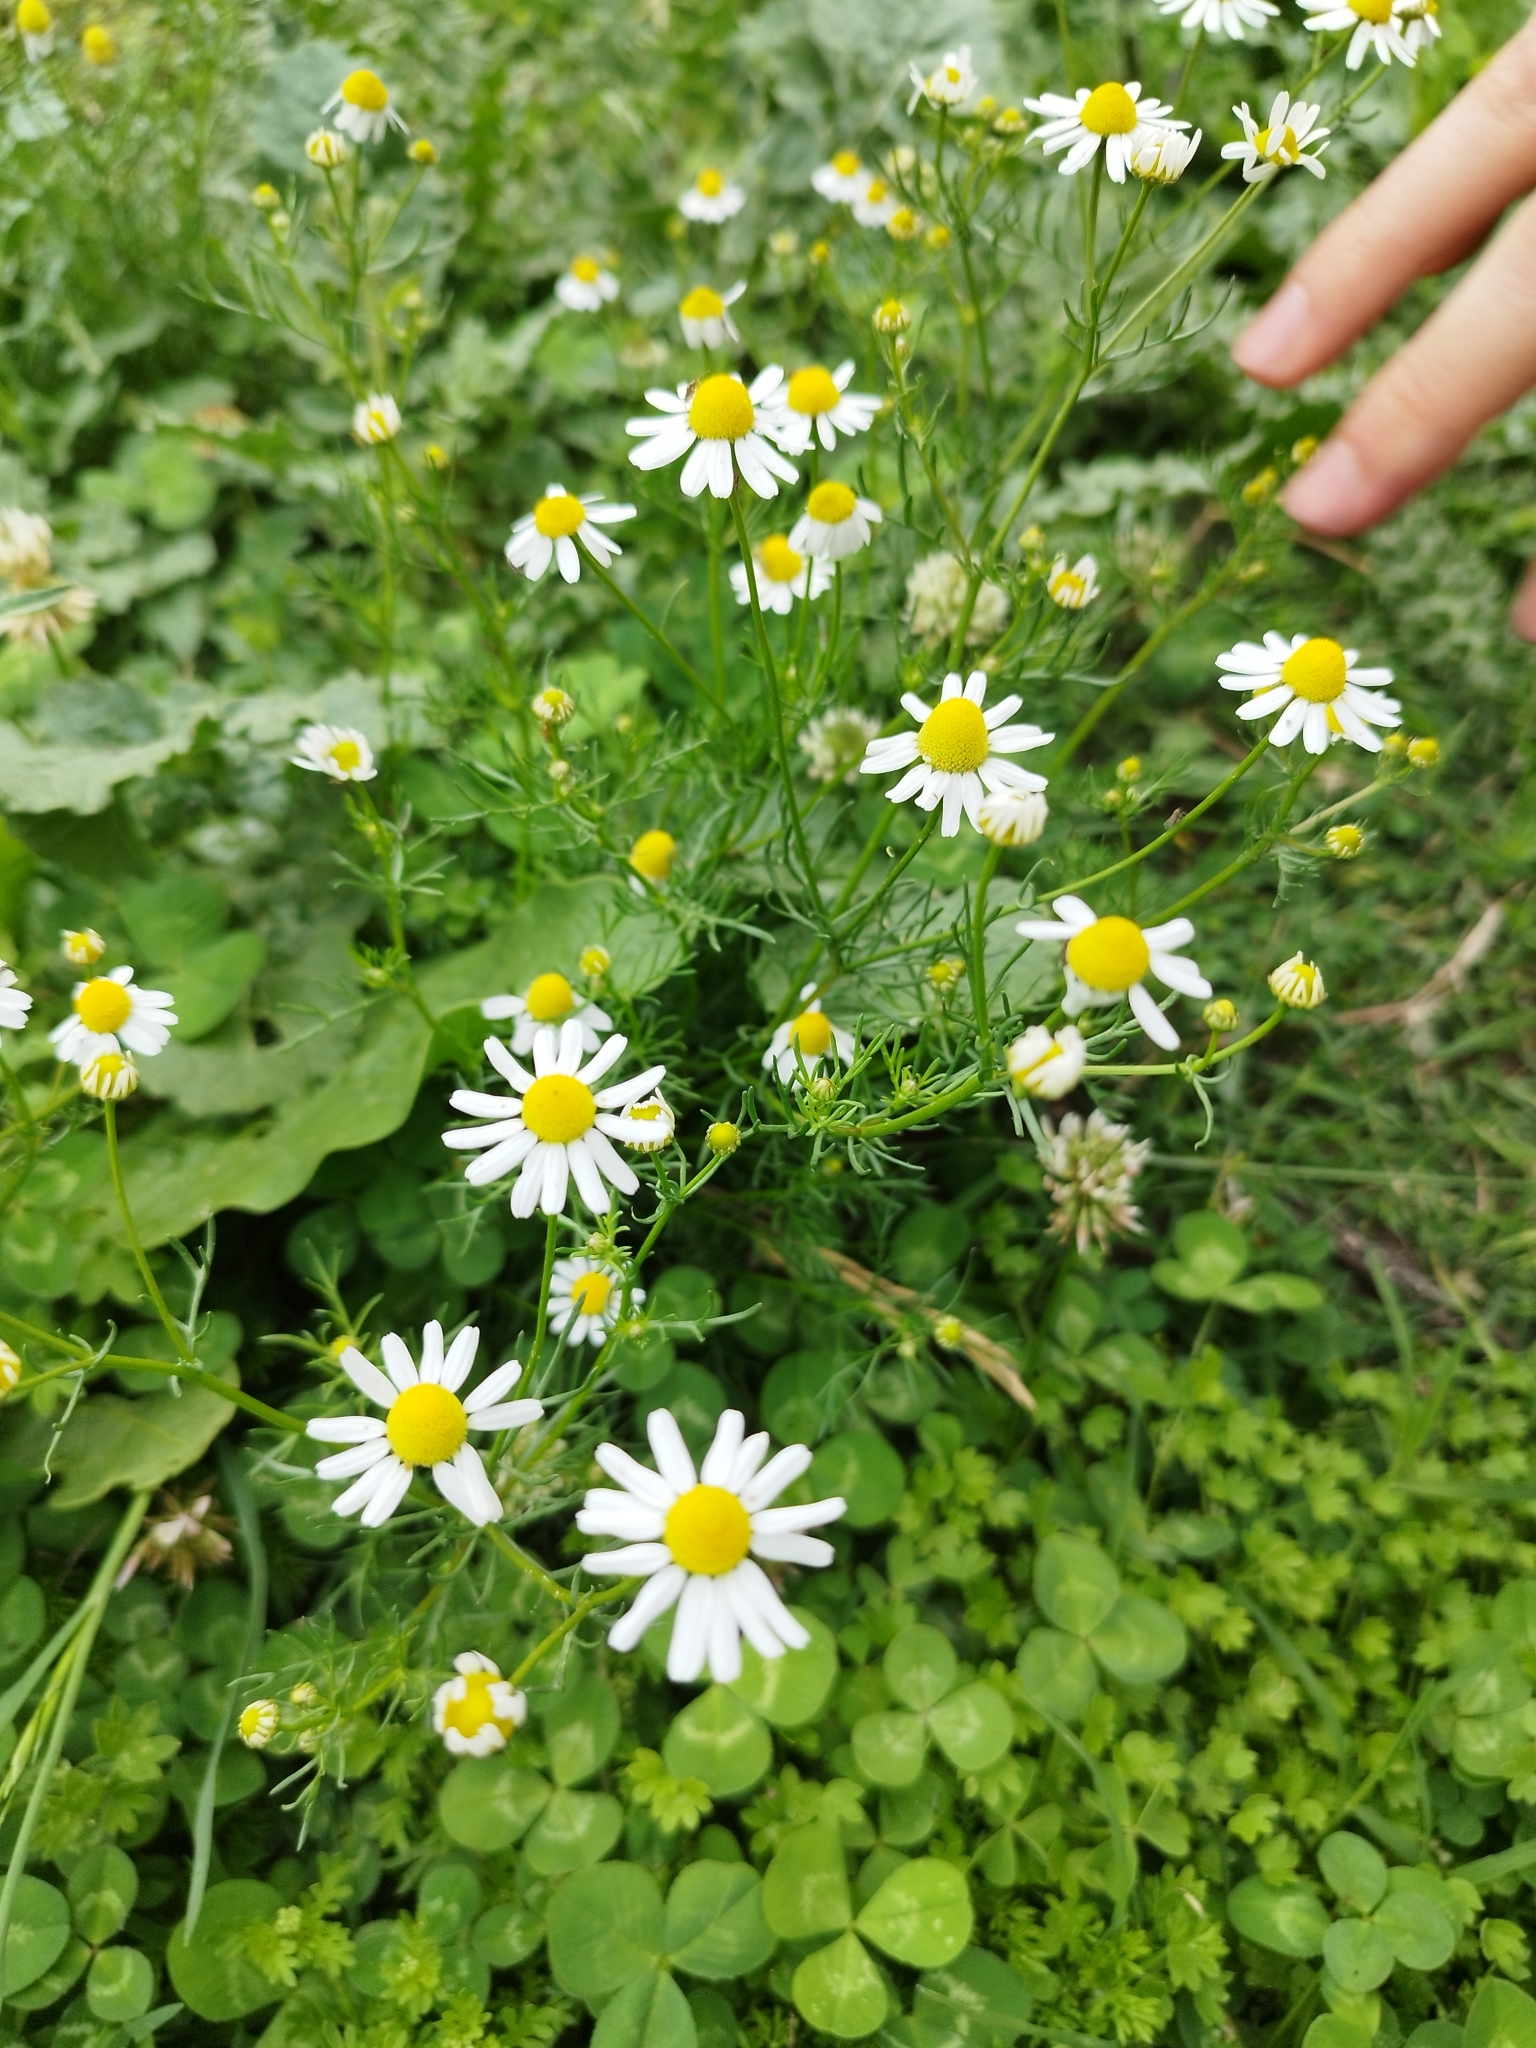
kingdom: Plantae
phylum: Tracheophyta
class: Magnoliopsida
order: Asterales
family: Asteraceae
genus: Matricaria
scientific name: Matricaria chamomilla
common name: Scented mayweed
